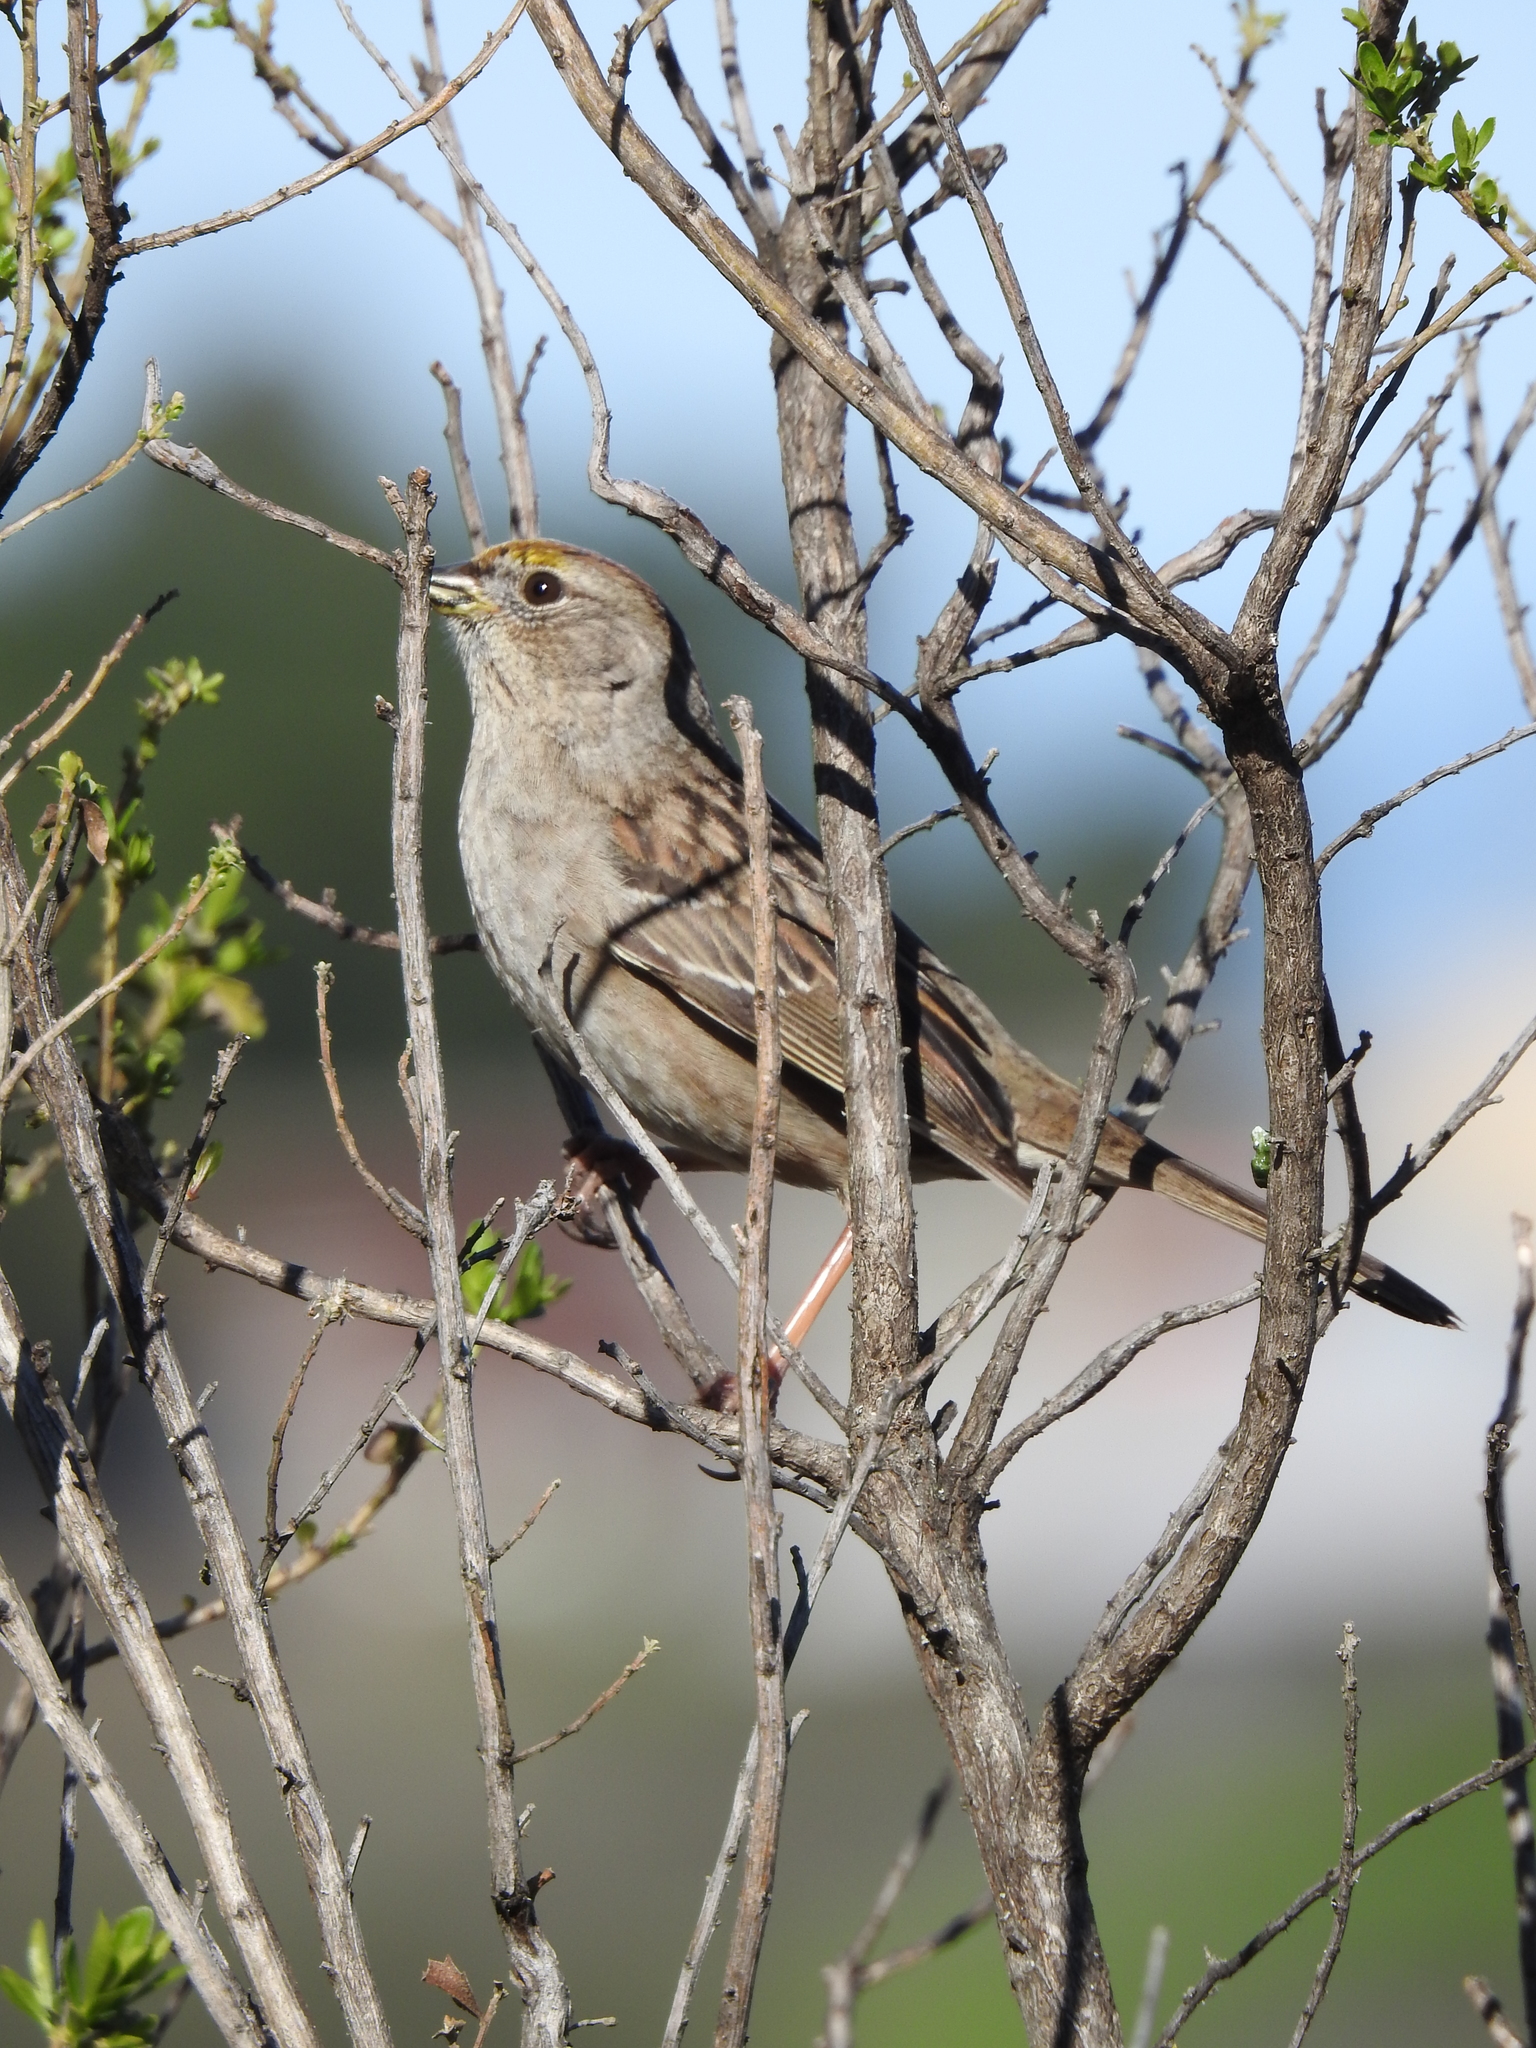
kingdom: Animalia
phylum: Chordata
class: Aves
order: Passeriformes
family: Passerellidae
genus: Zonotrichia
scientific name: Zonotrichia atricapilla
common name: Golden-crowned sparrow
